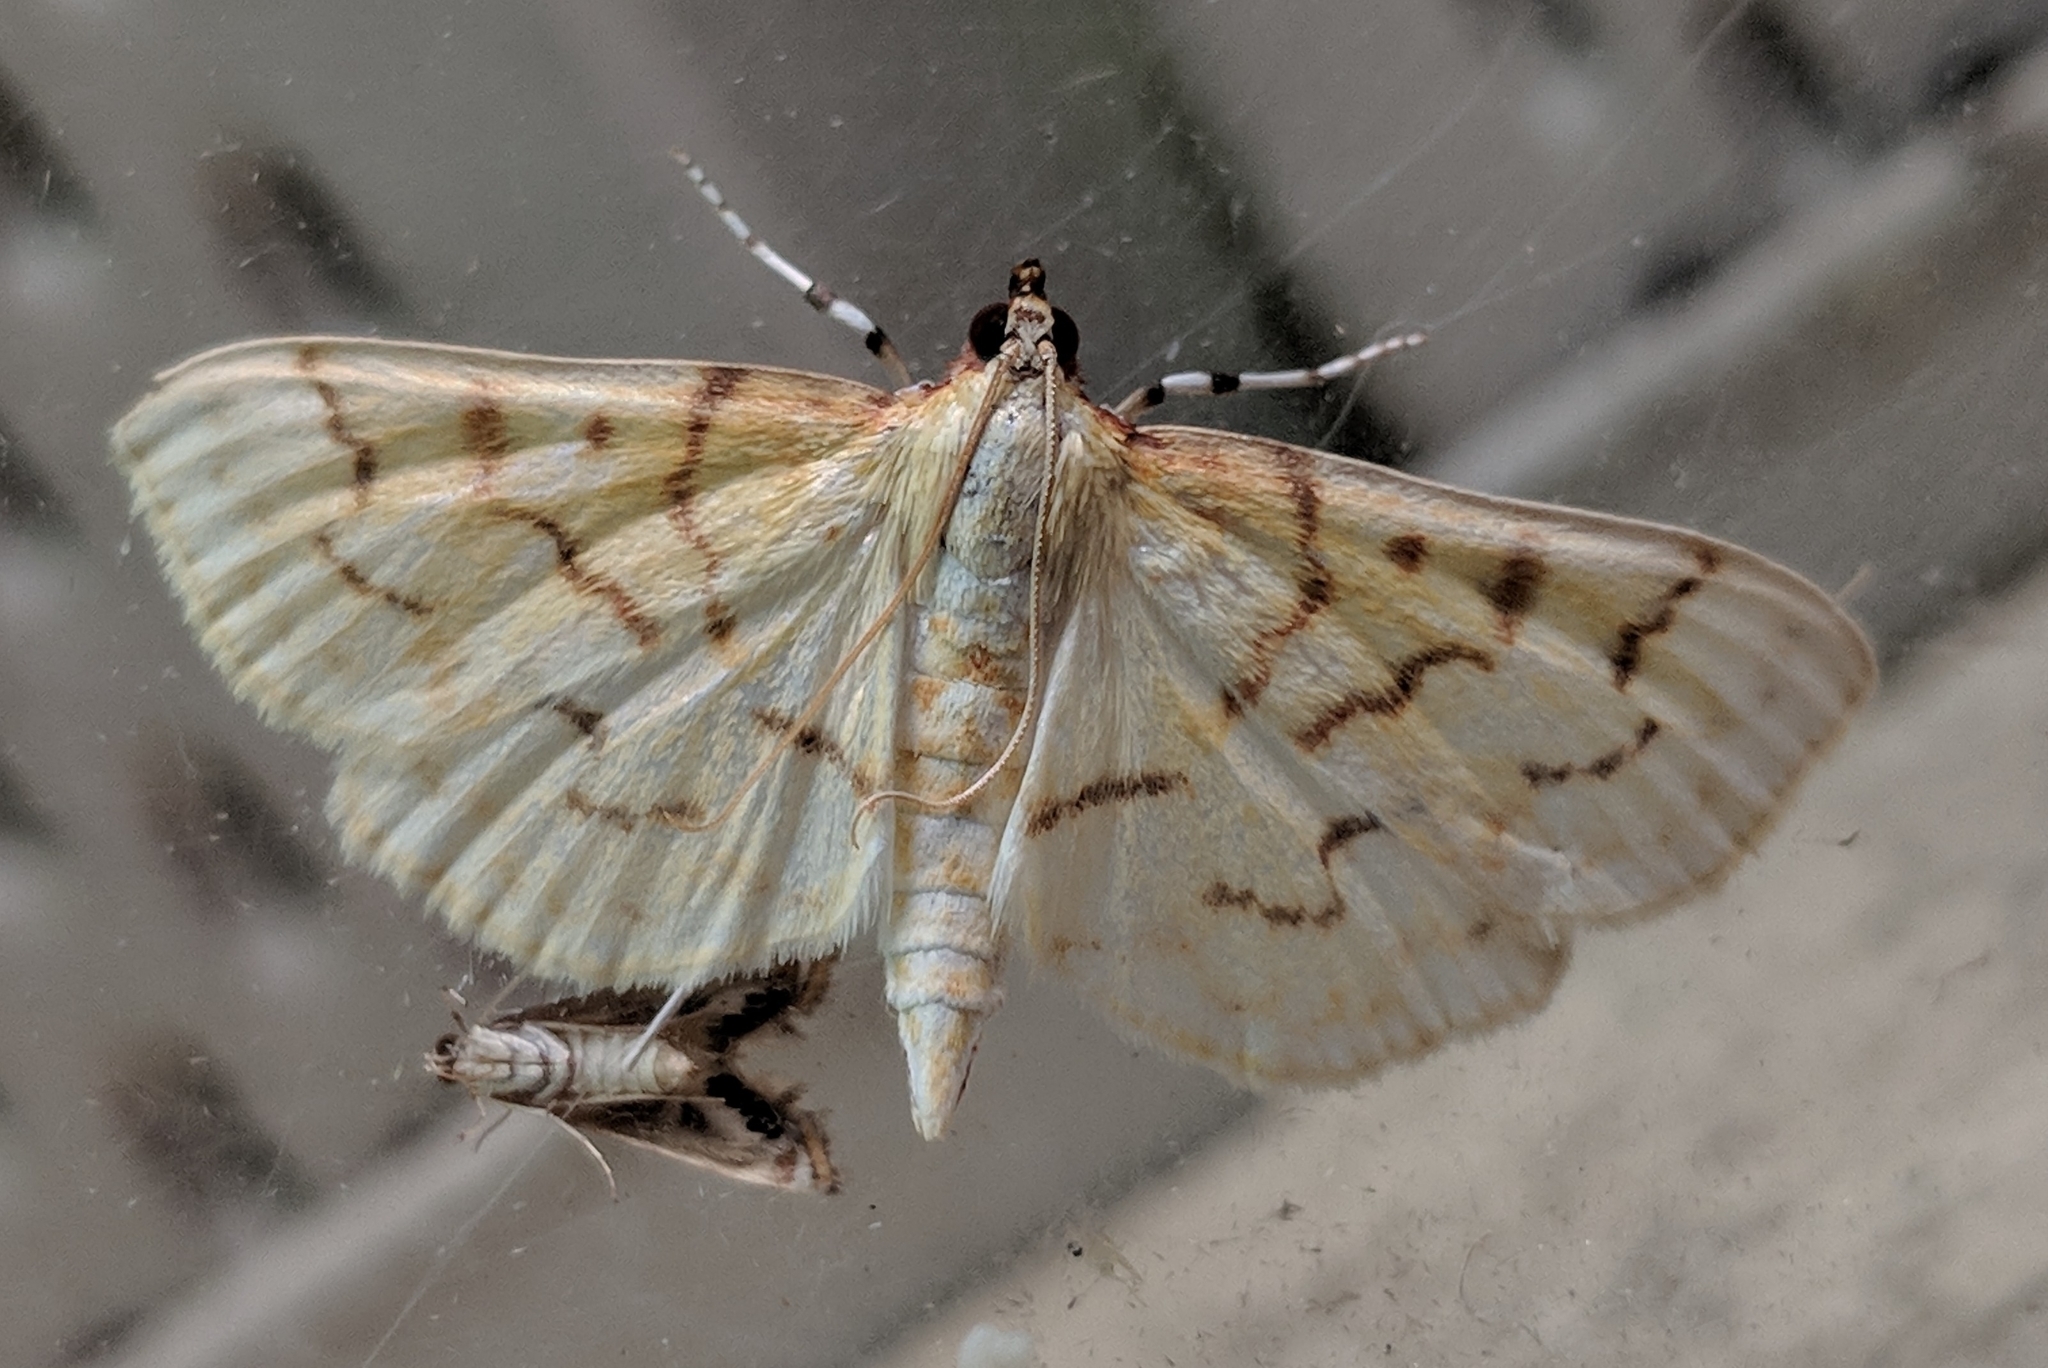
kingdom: Animalia
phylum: Arthropoda
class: Insecta
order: Lepidoptera
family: Crambidae
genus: Polygrammodes
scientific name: Polygrammodes flavidalis
